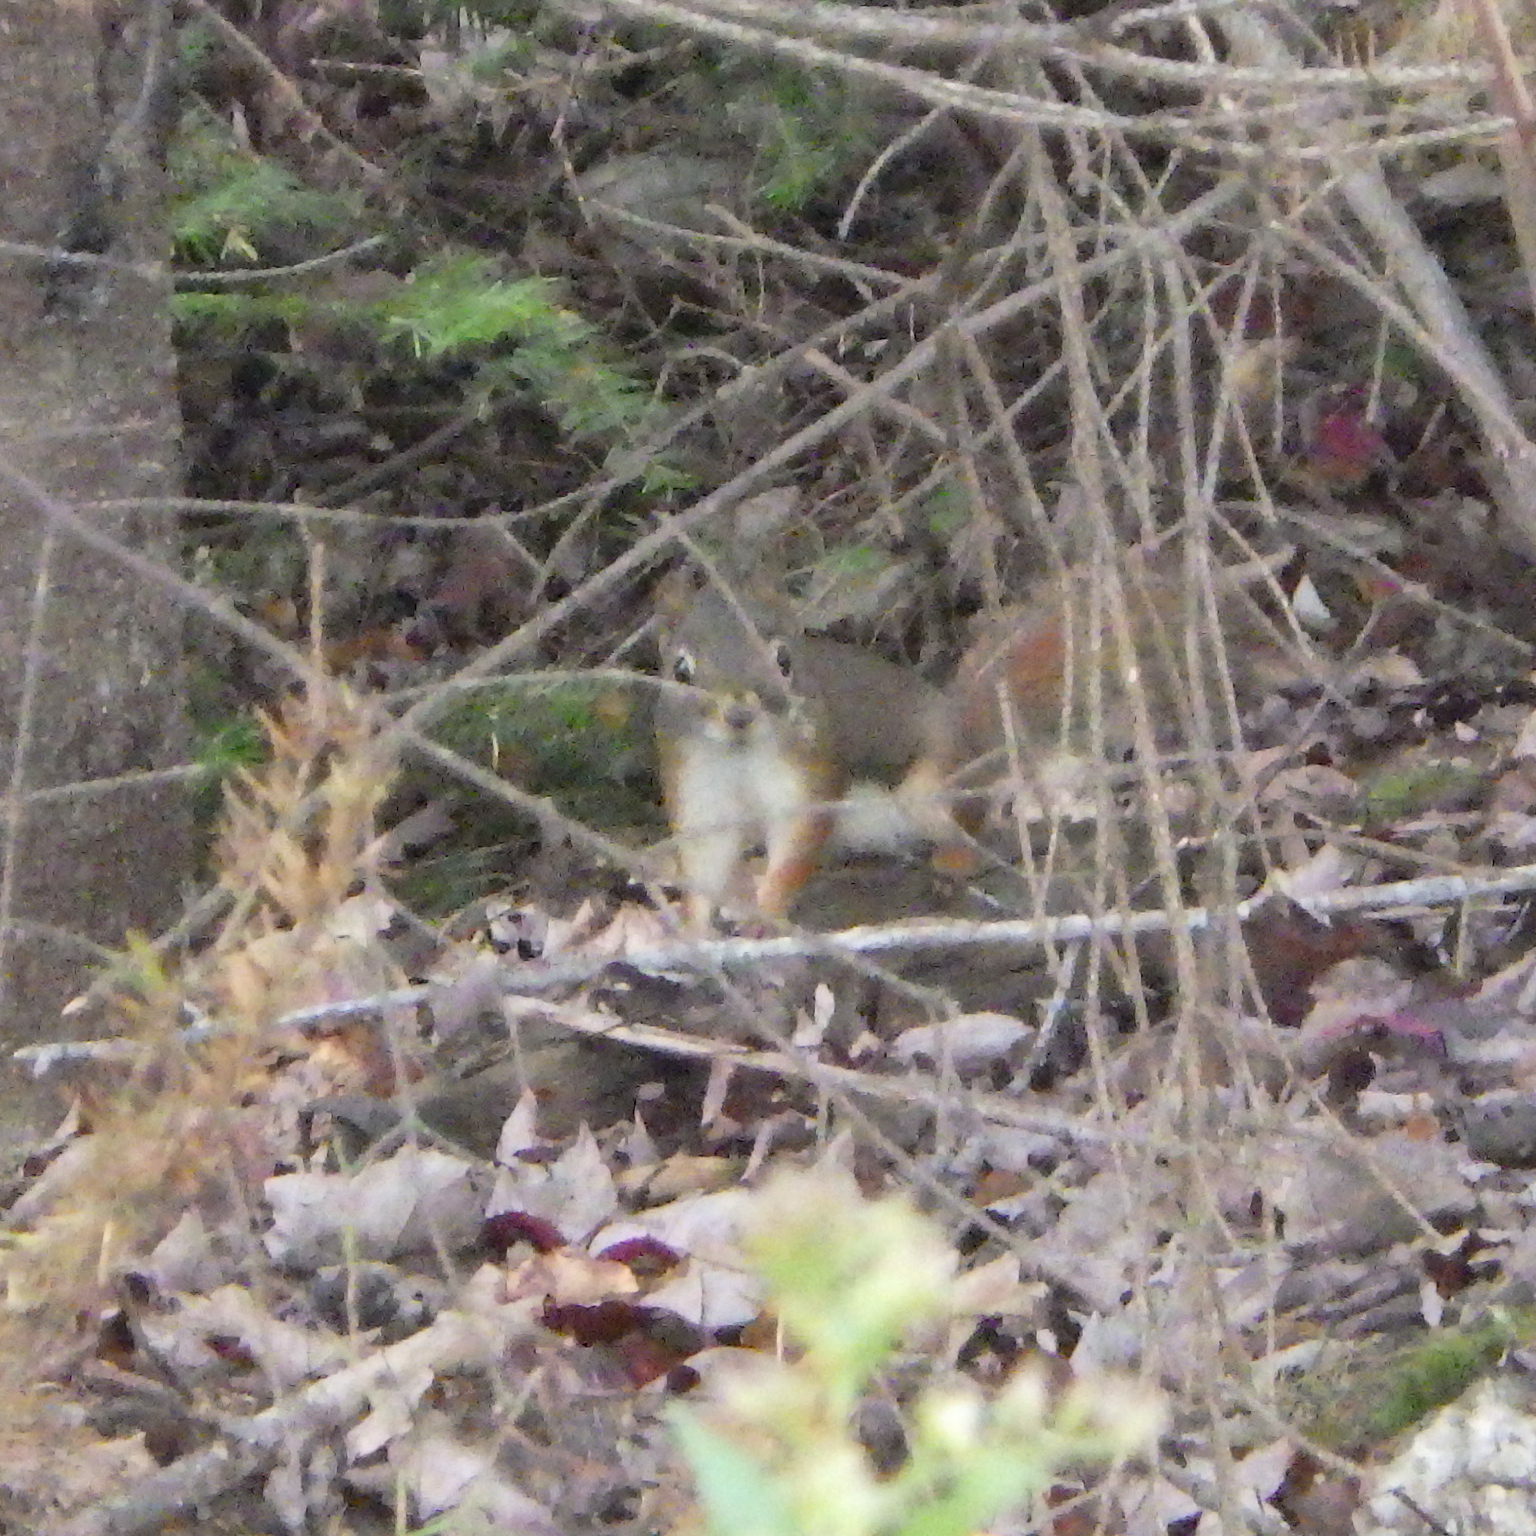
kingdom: Animalia
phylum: Chordata
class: Mammalia
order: Rodentia
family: Sciuridae
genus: Tamiasciurus
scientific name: Tamiasciurus hudsonicus
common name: Red squirrel
